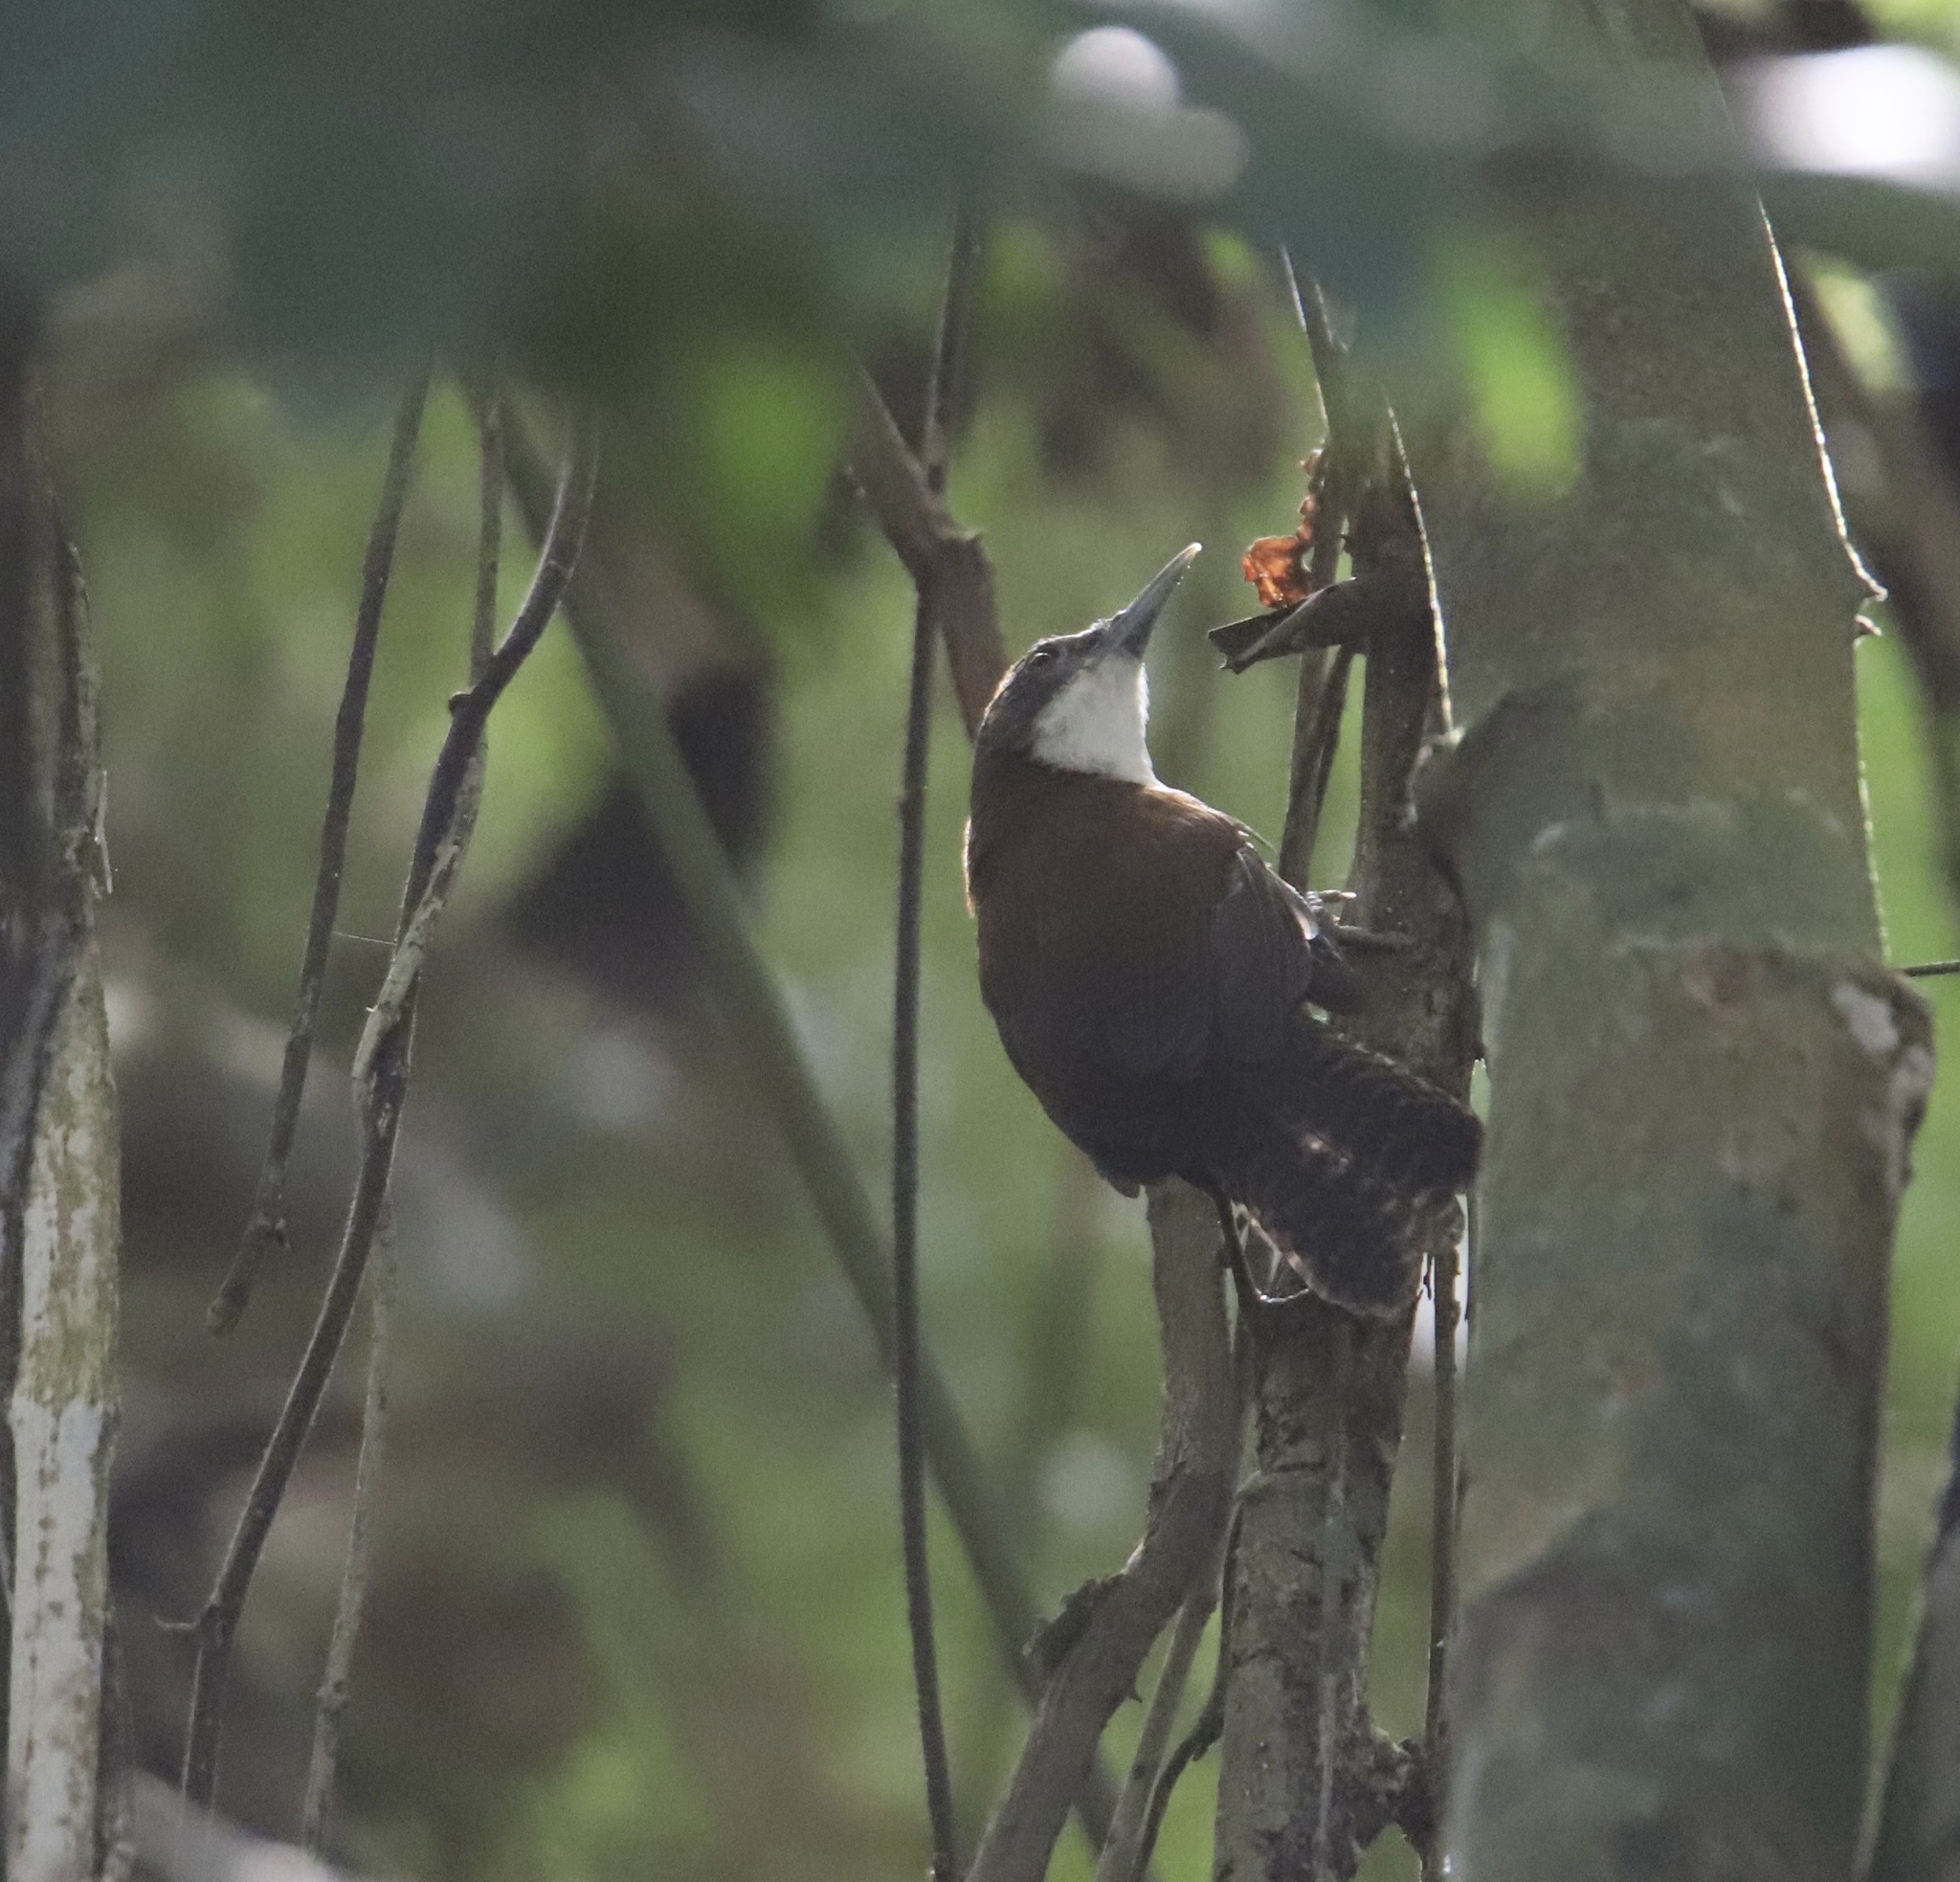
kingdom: Animalia
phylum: Chordata
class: Aves
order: Passeriformes
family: Troglodytidae
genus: Pheugopedius
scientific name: Pheugopedius fasciatoventris
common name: Black-bellied wren
